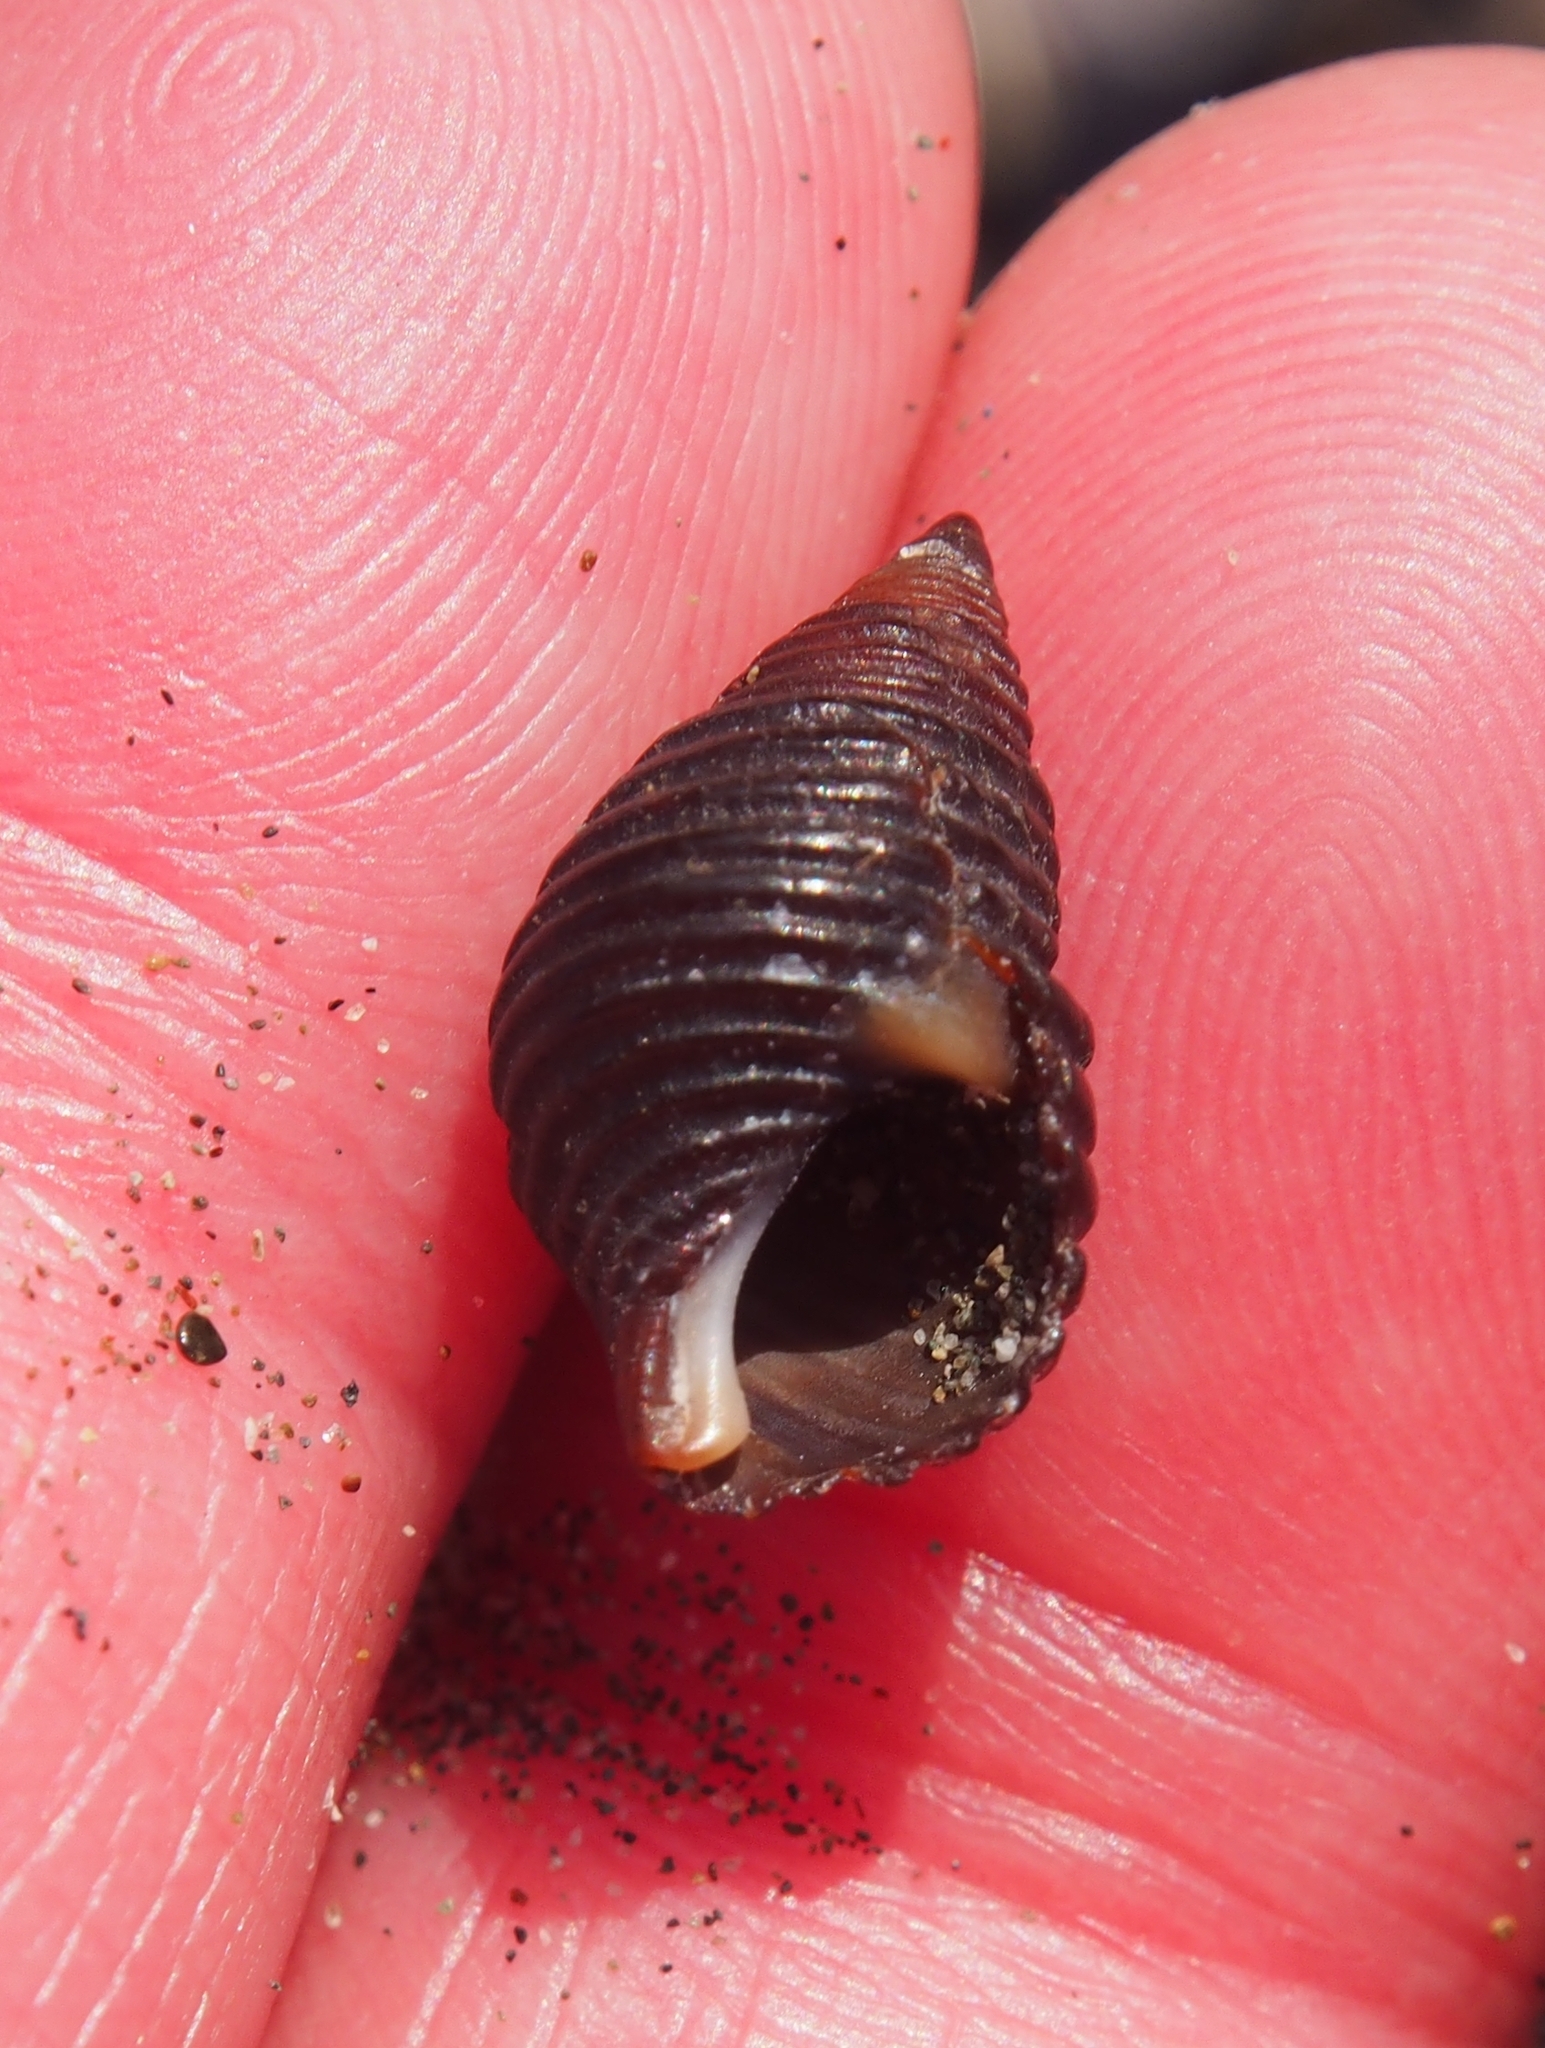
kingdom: Animalia
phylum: Mollusca
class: Gastropoda
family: Planaxidae
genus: Supplanaxis
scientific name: Supplanaxis planicostatus
